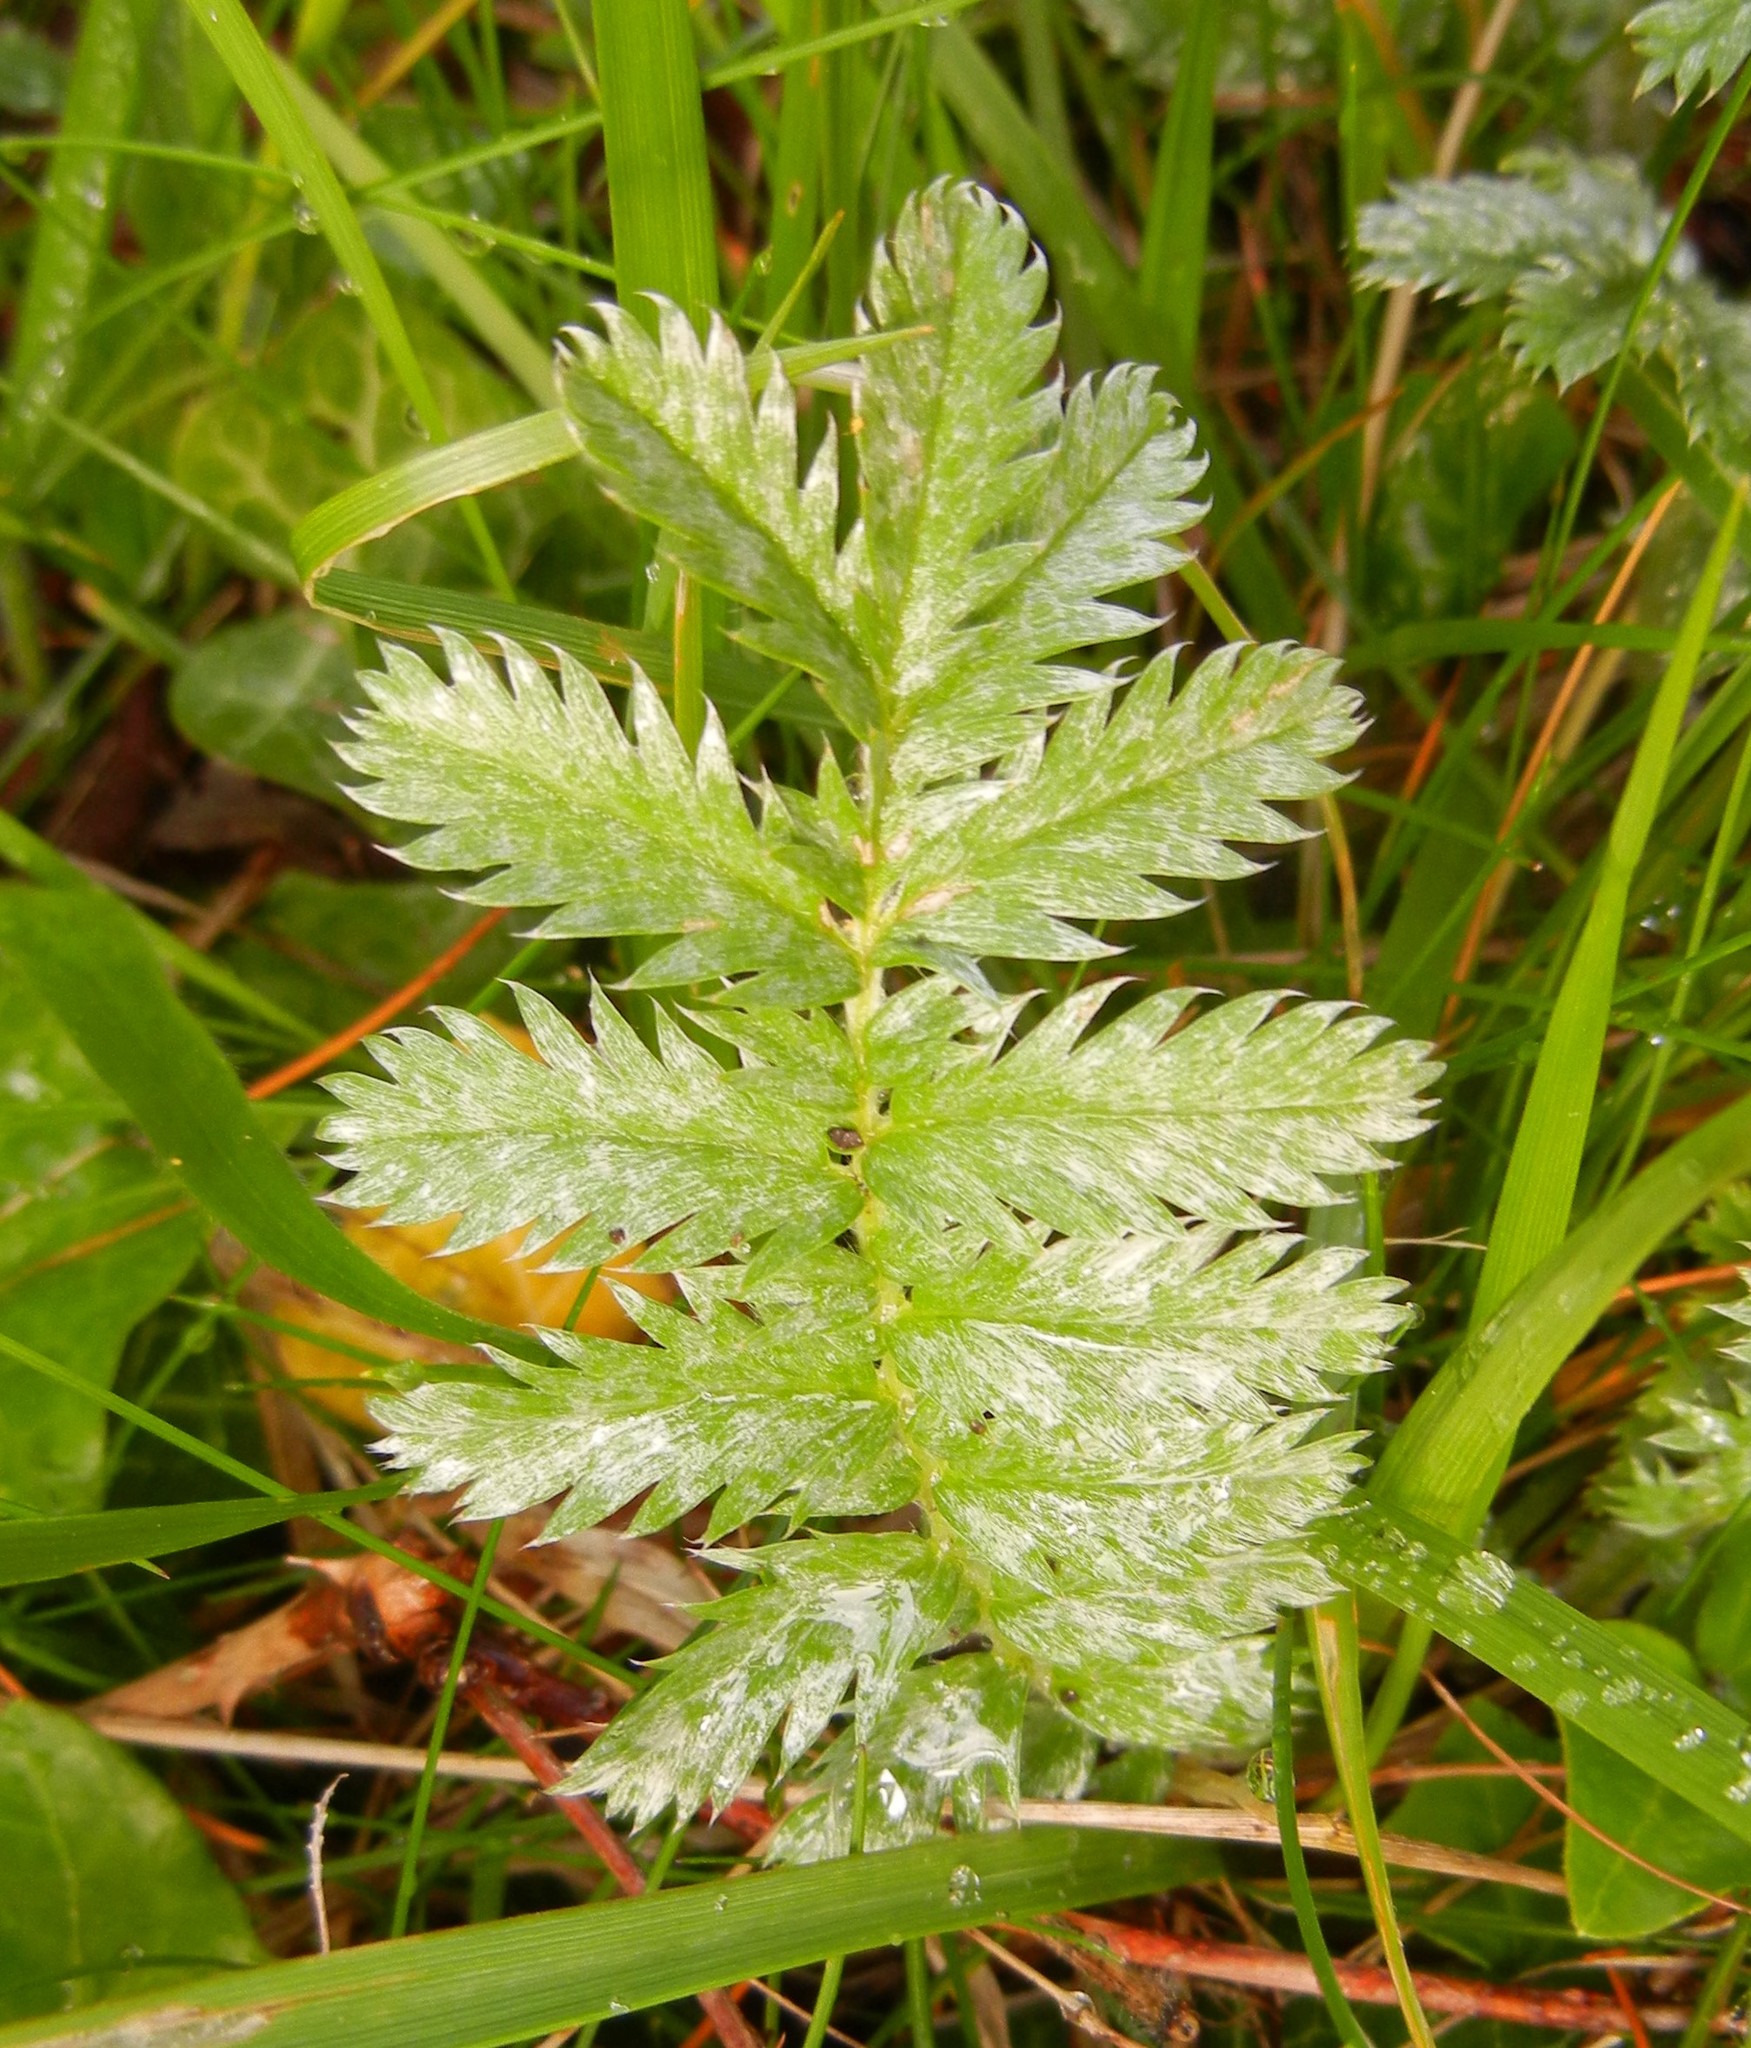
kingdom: Plantae
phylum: Tracheophyta
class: Magnoliopsida
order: Rosales
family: Rosaceae
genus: Argentina
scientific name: Argentina anserina
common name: Common silverweed
